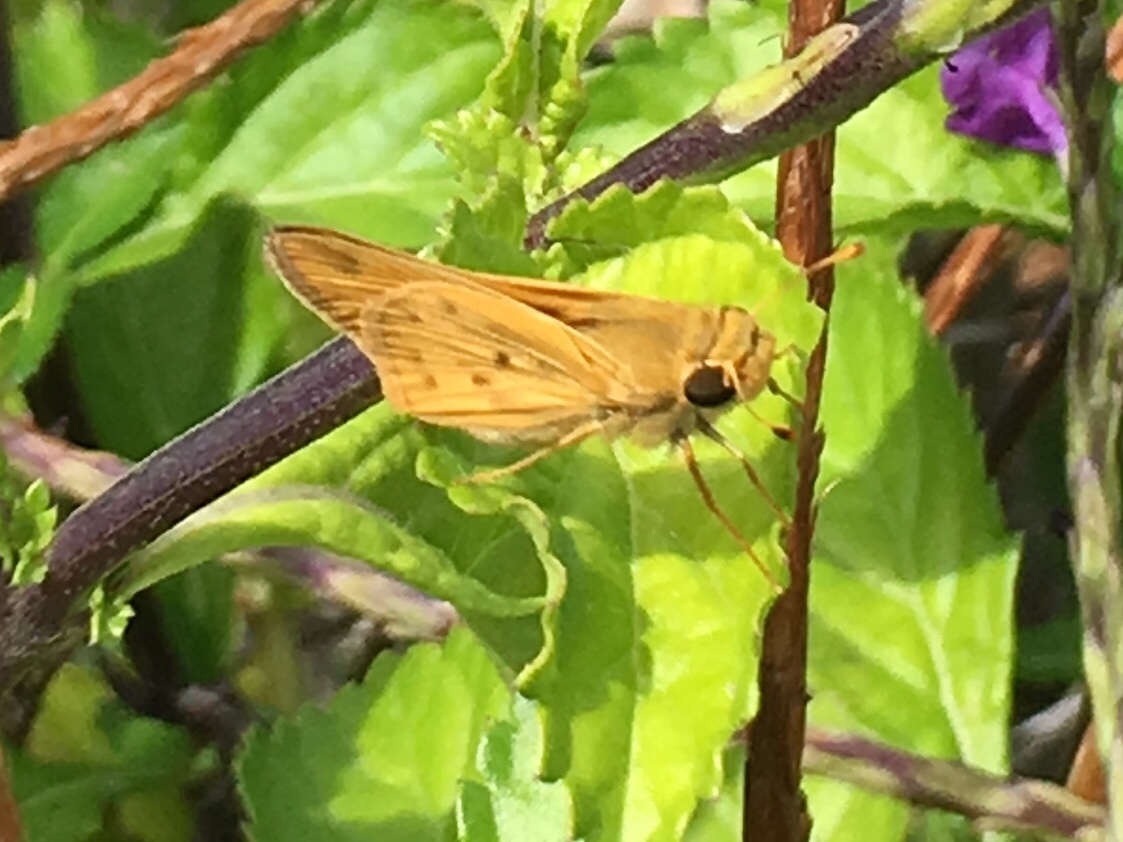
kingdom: Animalia
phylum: Arthropoda
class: Insecta
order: Lepidoptera
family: Hesperiidae
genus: Hylephila
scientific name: Hylephila phyleus
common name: Fiery skipper
